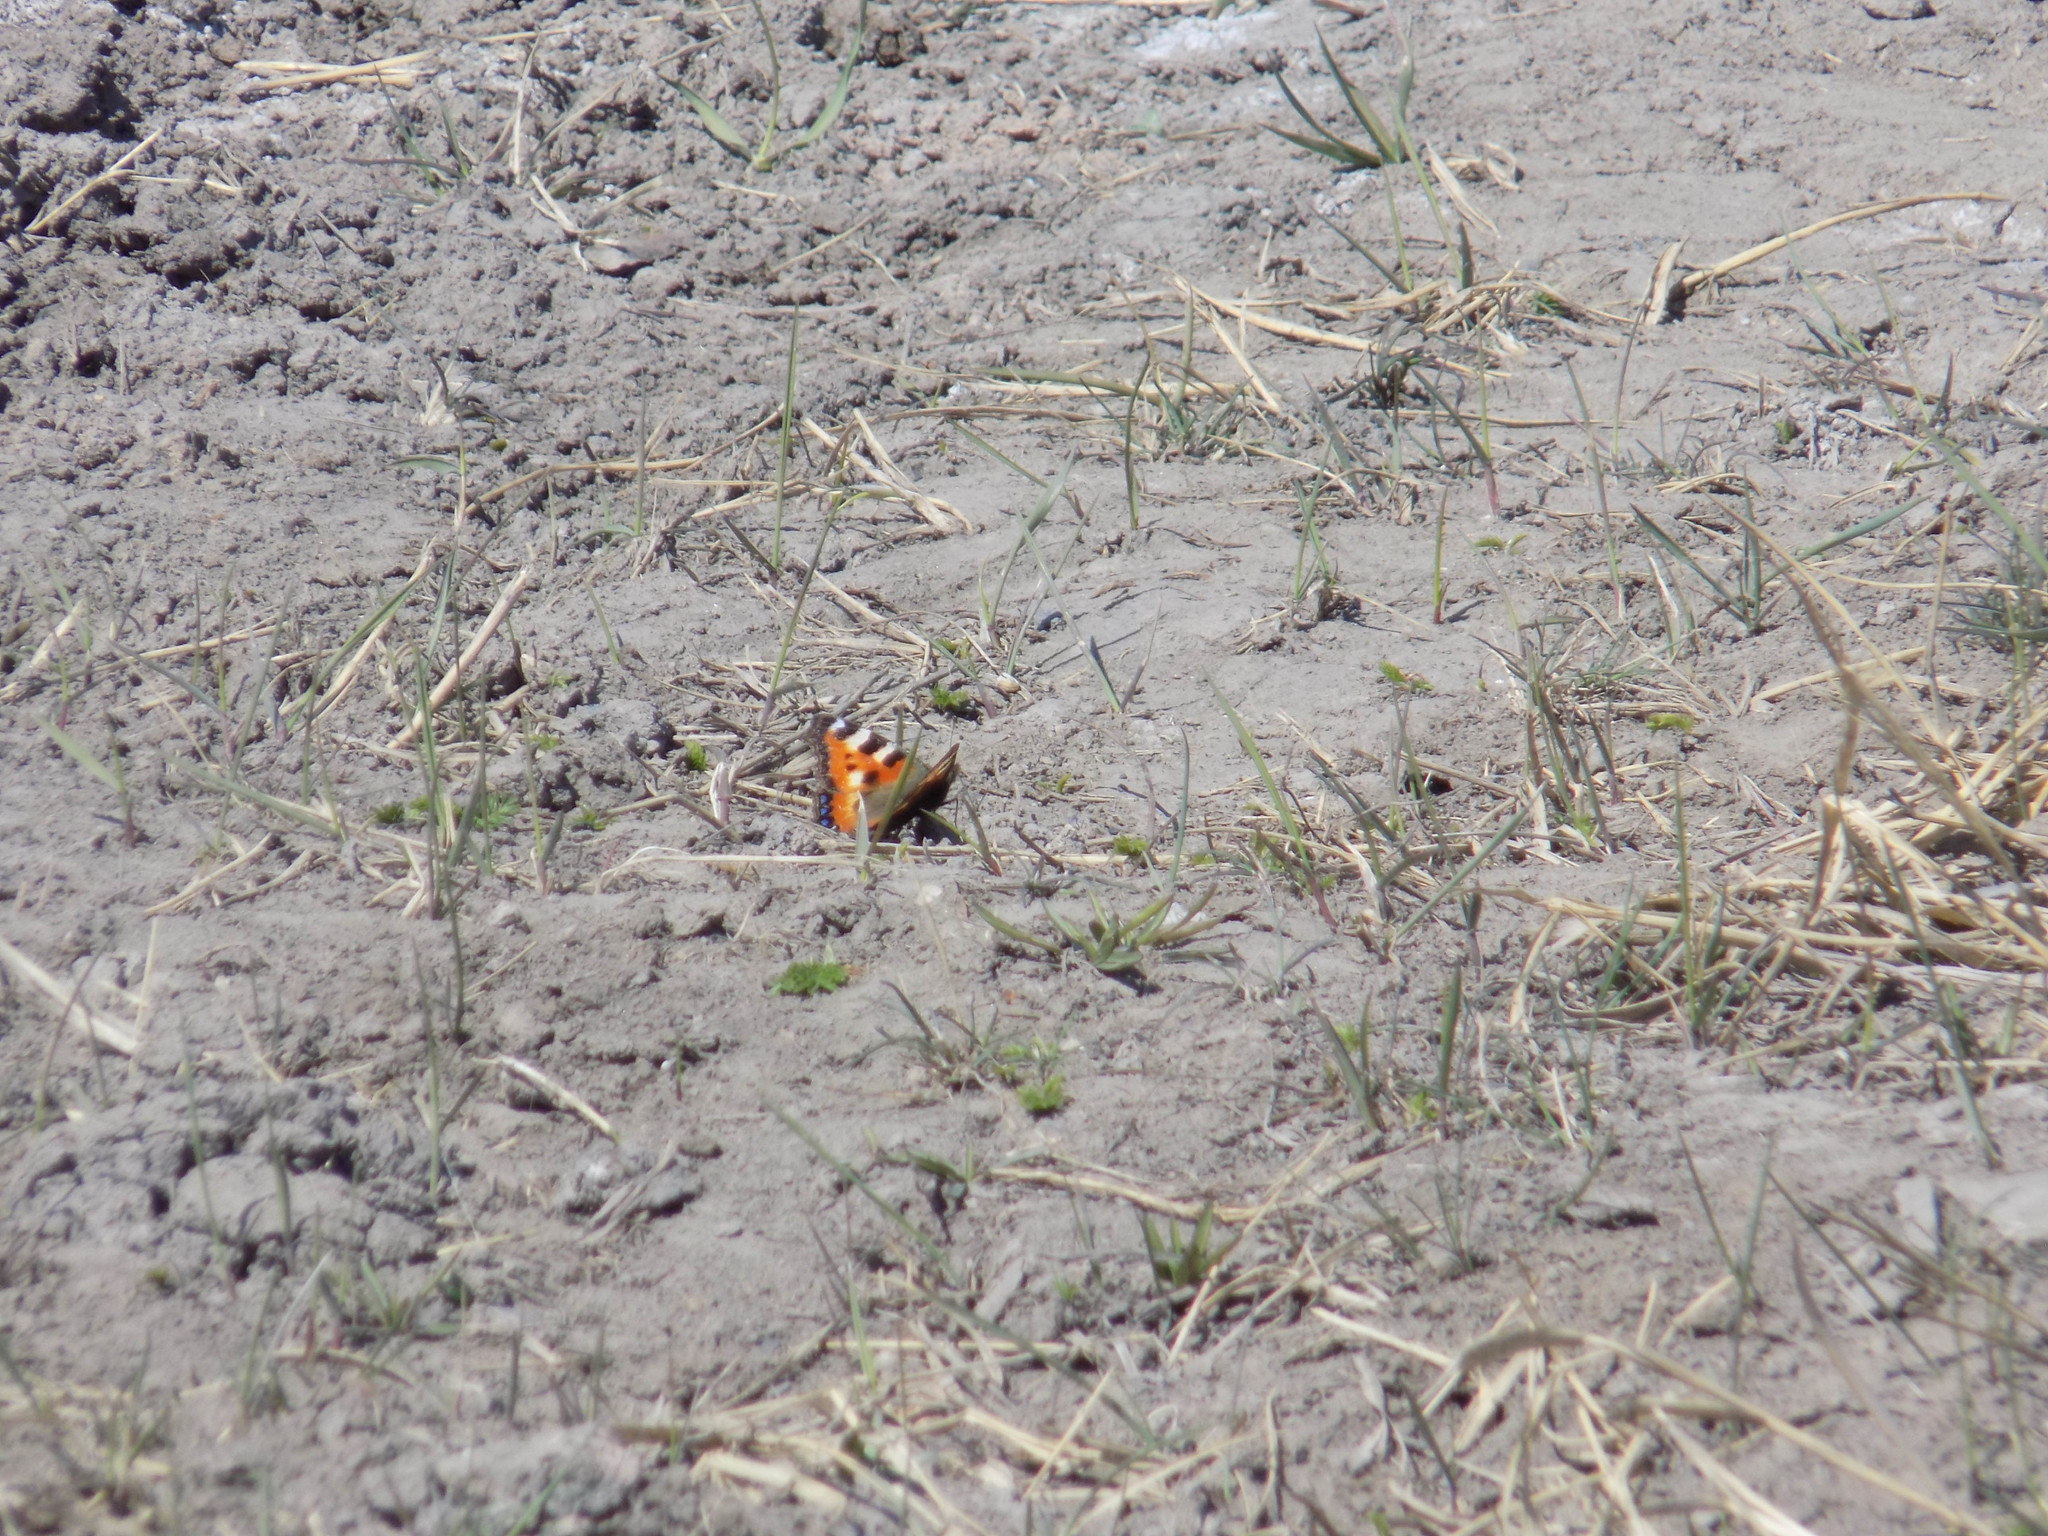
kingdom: Animalia
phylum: Arthropoda
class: Insecta
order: Lepidoptera
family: Nymphalidae
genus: Aglais
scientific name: Aglais urticae
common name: Small tortoiseshell
